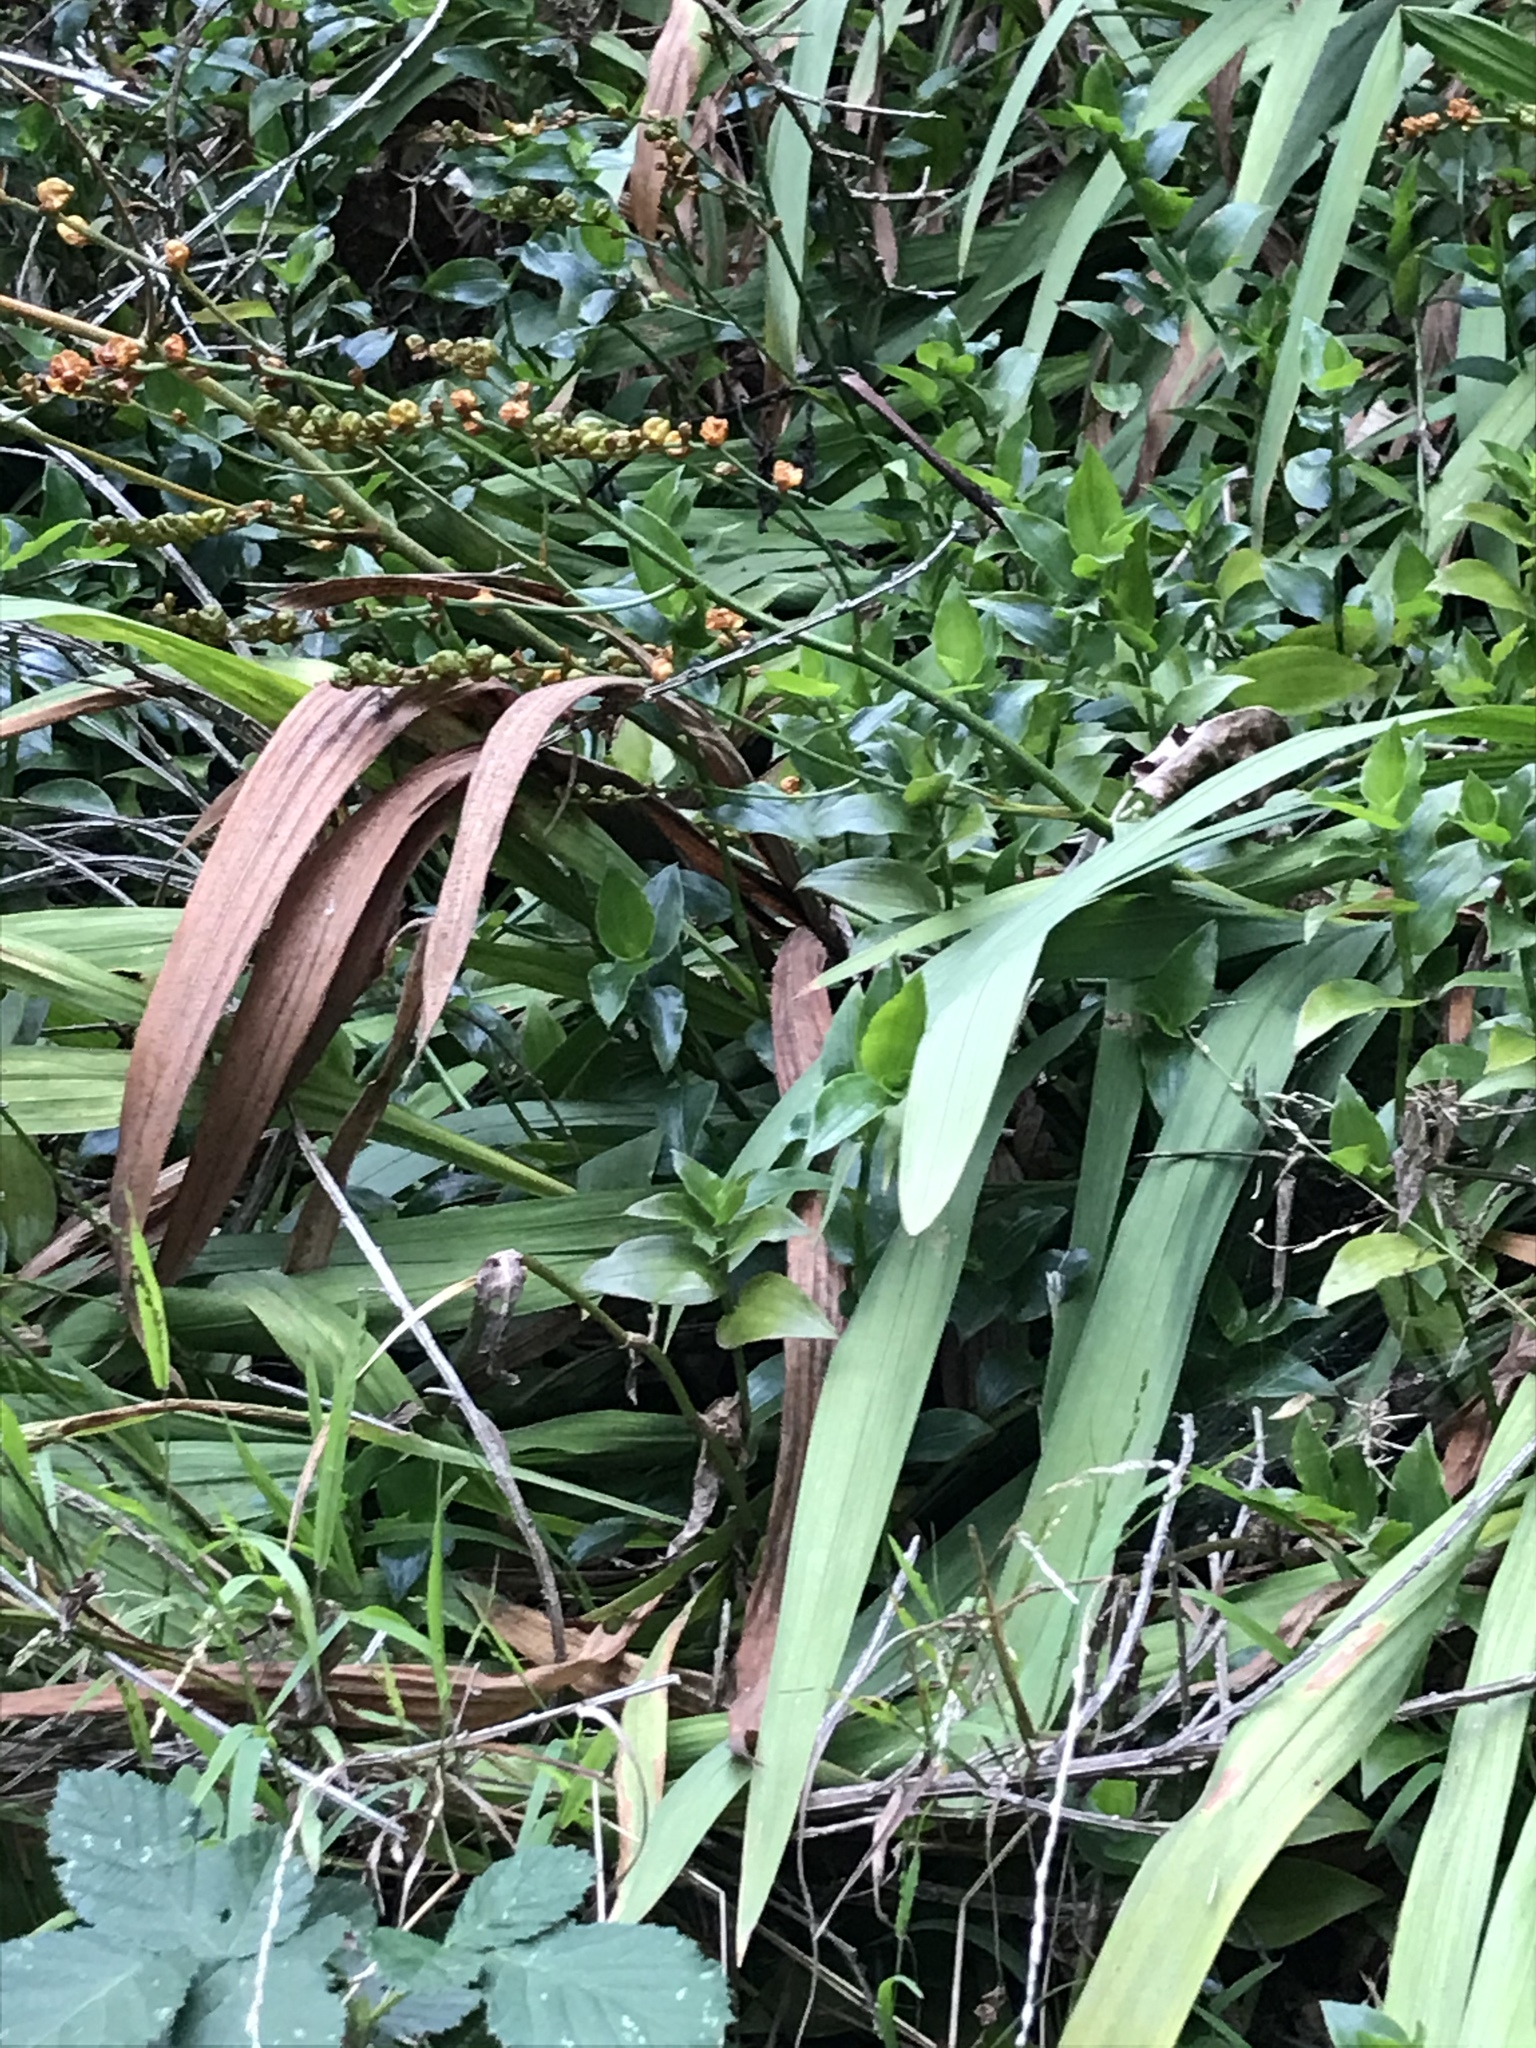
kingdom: Plantae
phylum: Tracheophyta
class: Liliopsida
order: Asparagales
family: Iridaceae
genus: Crocosmia
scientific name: Crocosmia crocosmiiflora
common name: Montbretia
